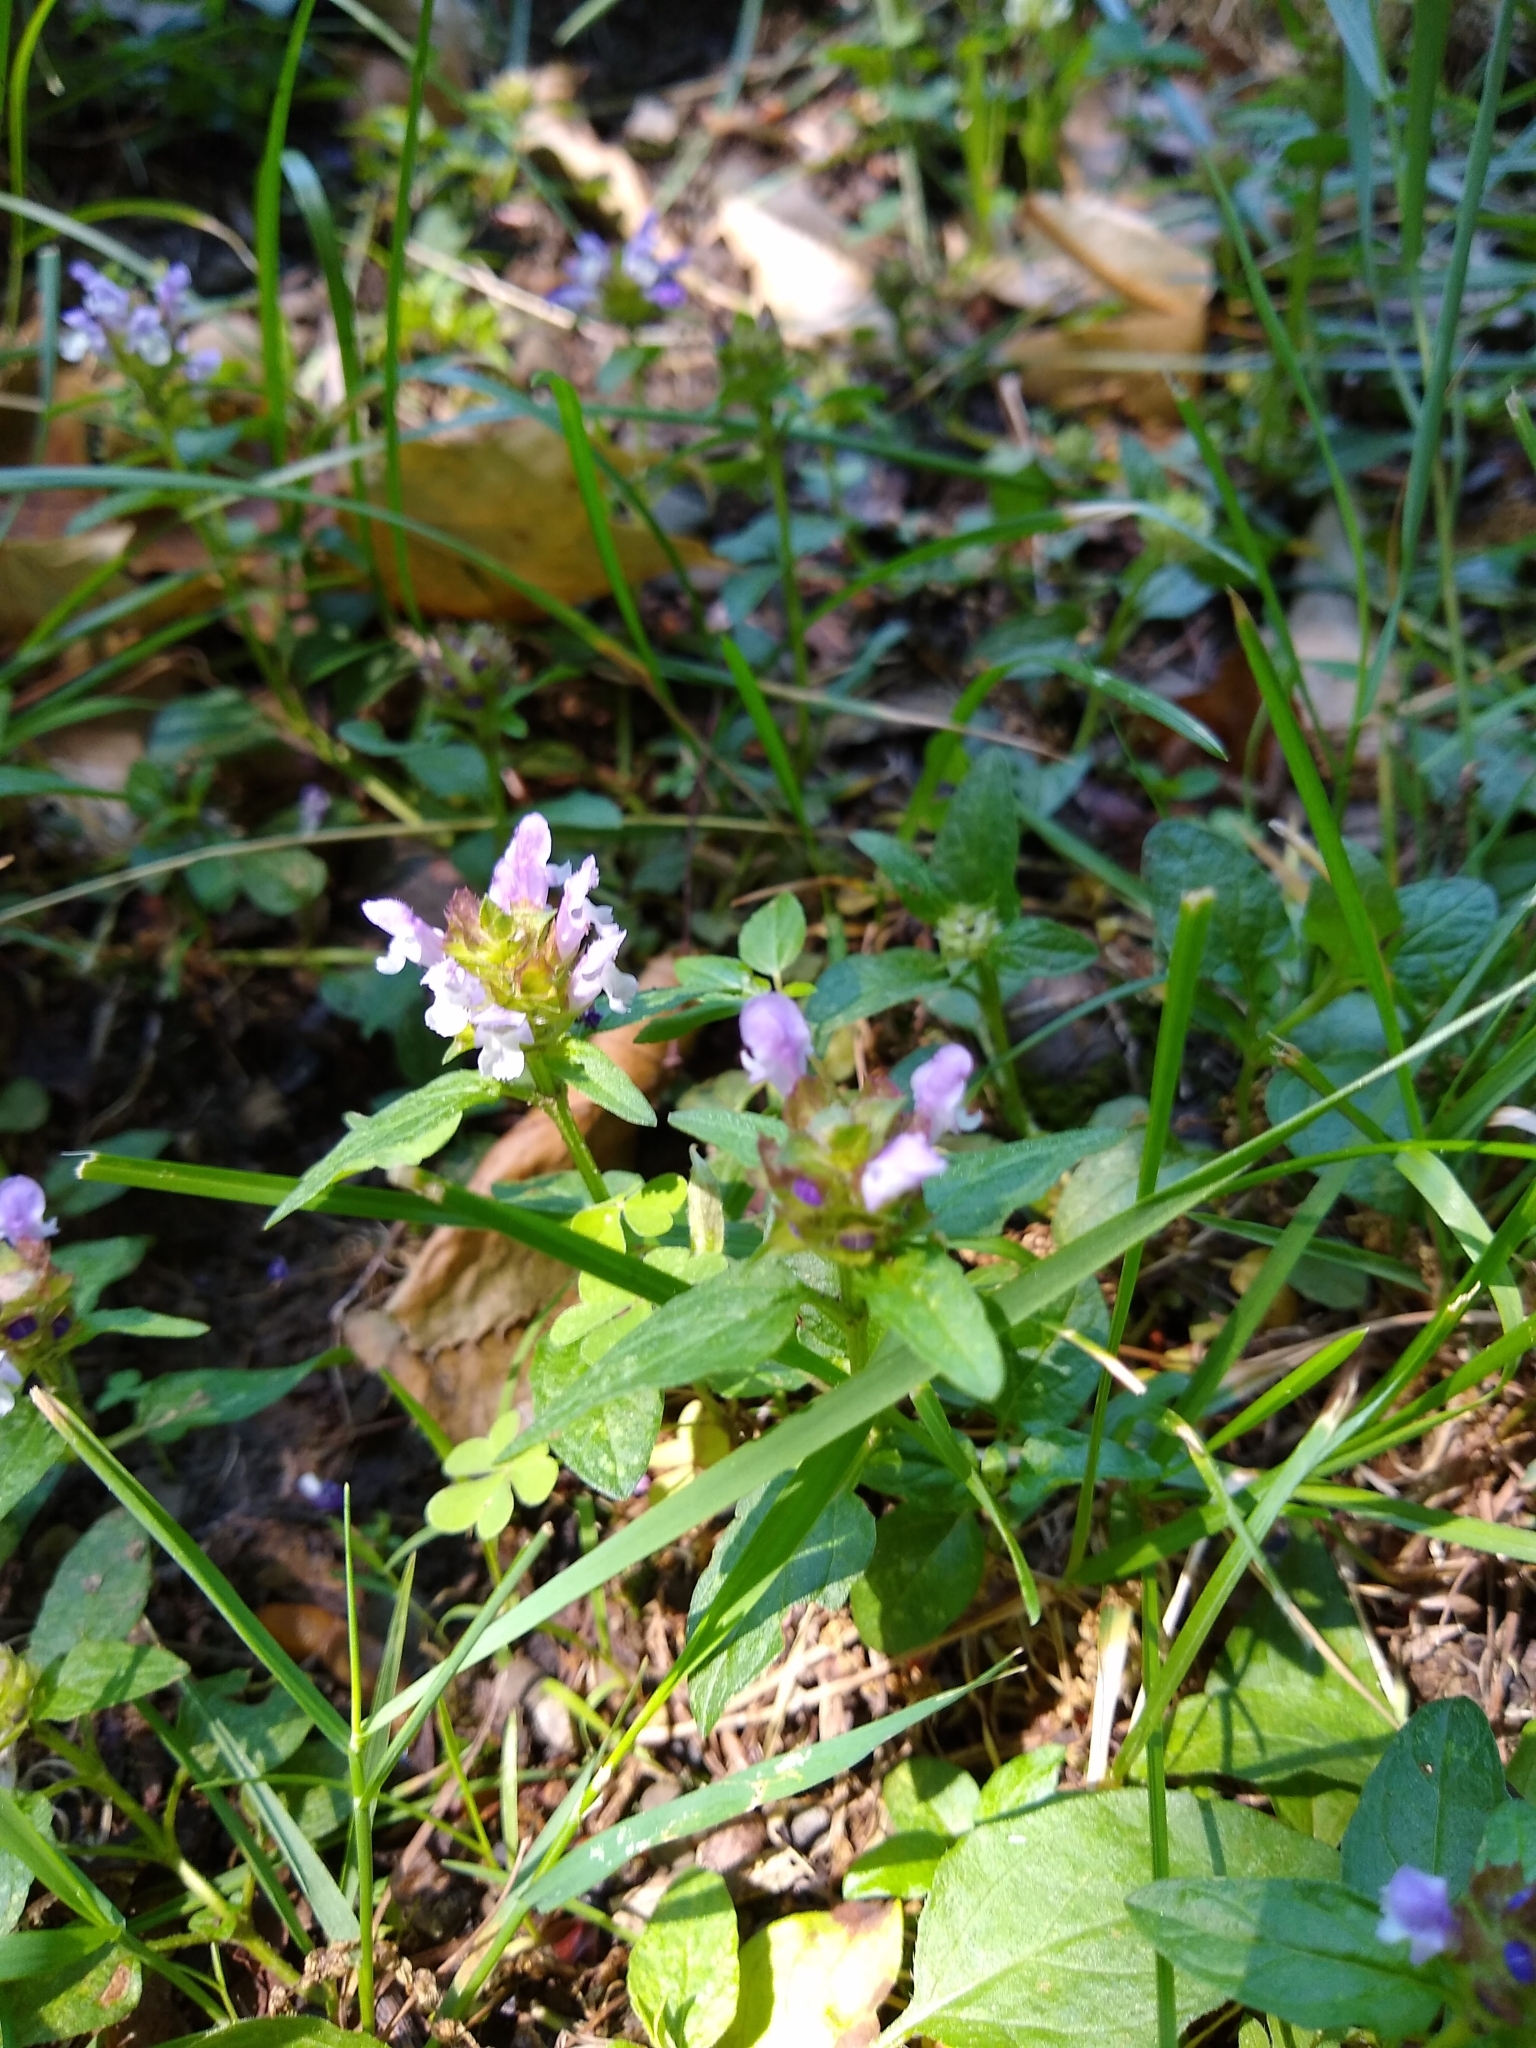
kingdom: Plantae
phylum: Tracheophyta
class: Magnoliopsida
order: Lamiales
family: Lamiaceae
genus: Prunella
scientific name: Prunella vulgaris
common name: Heal-all
